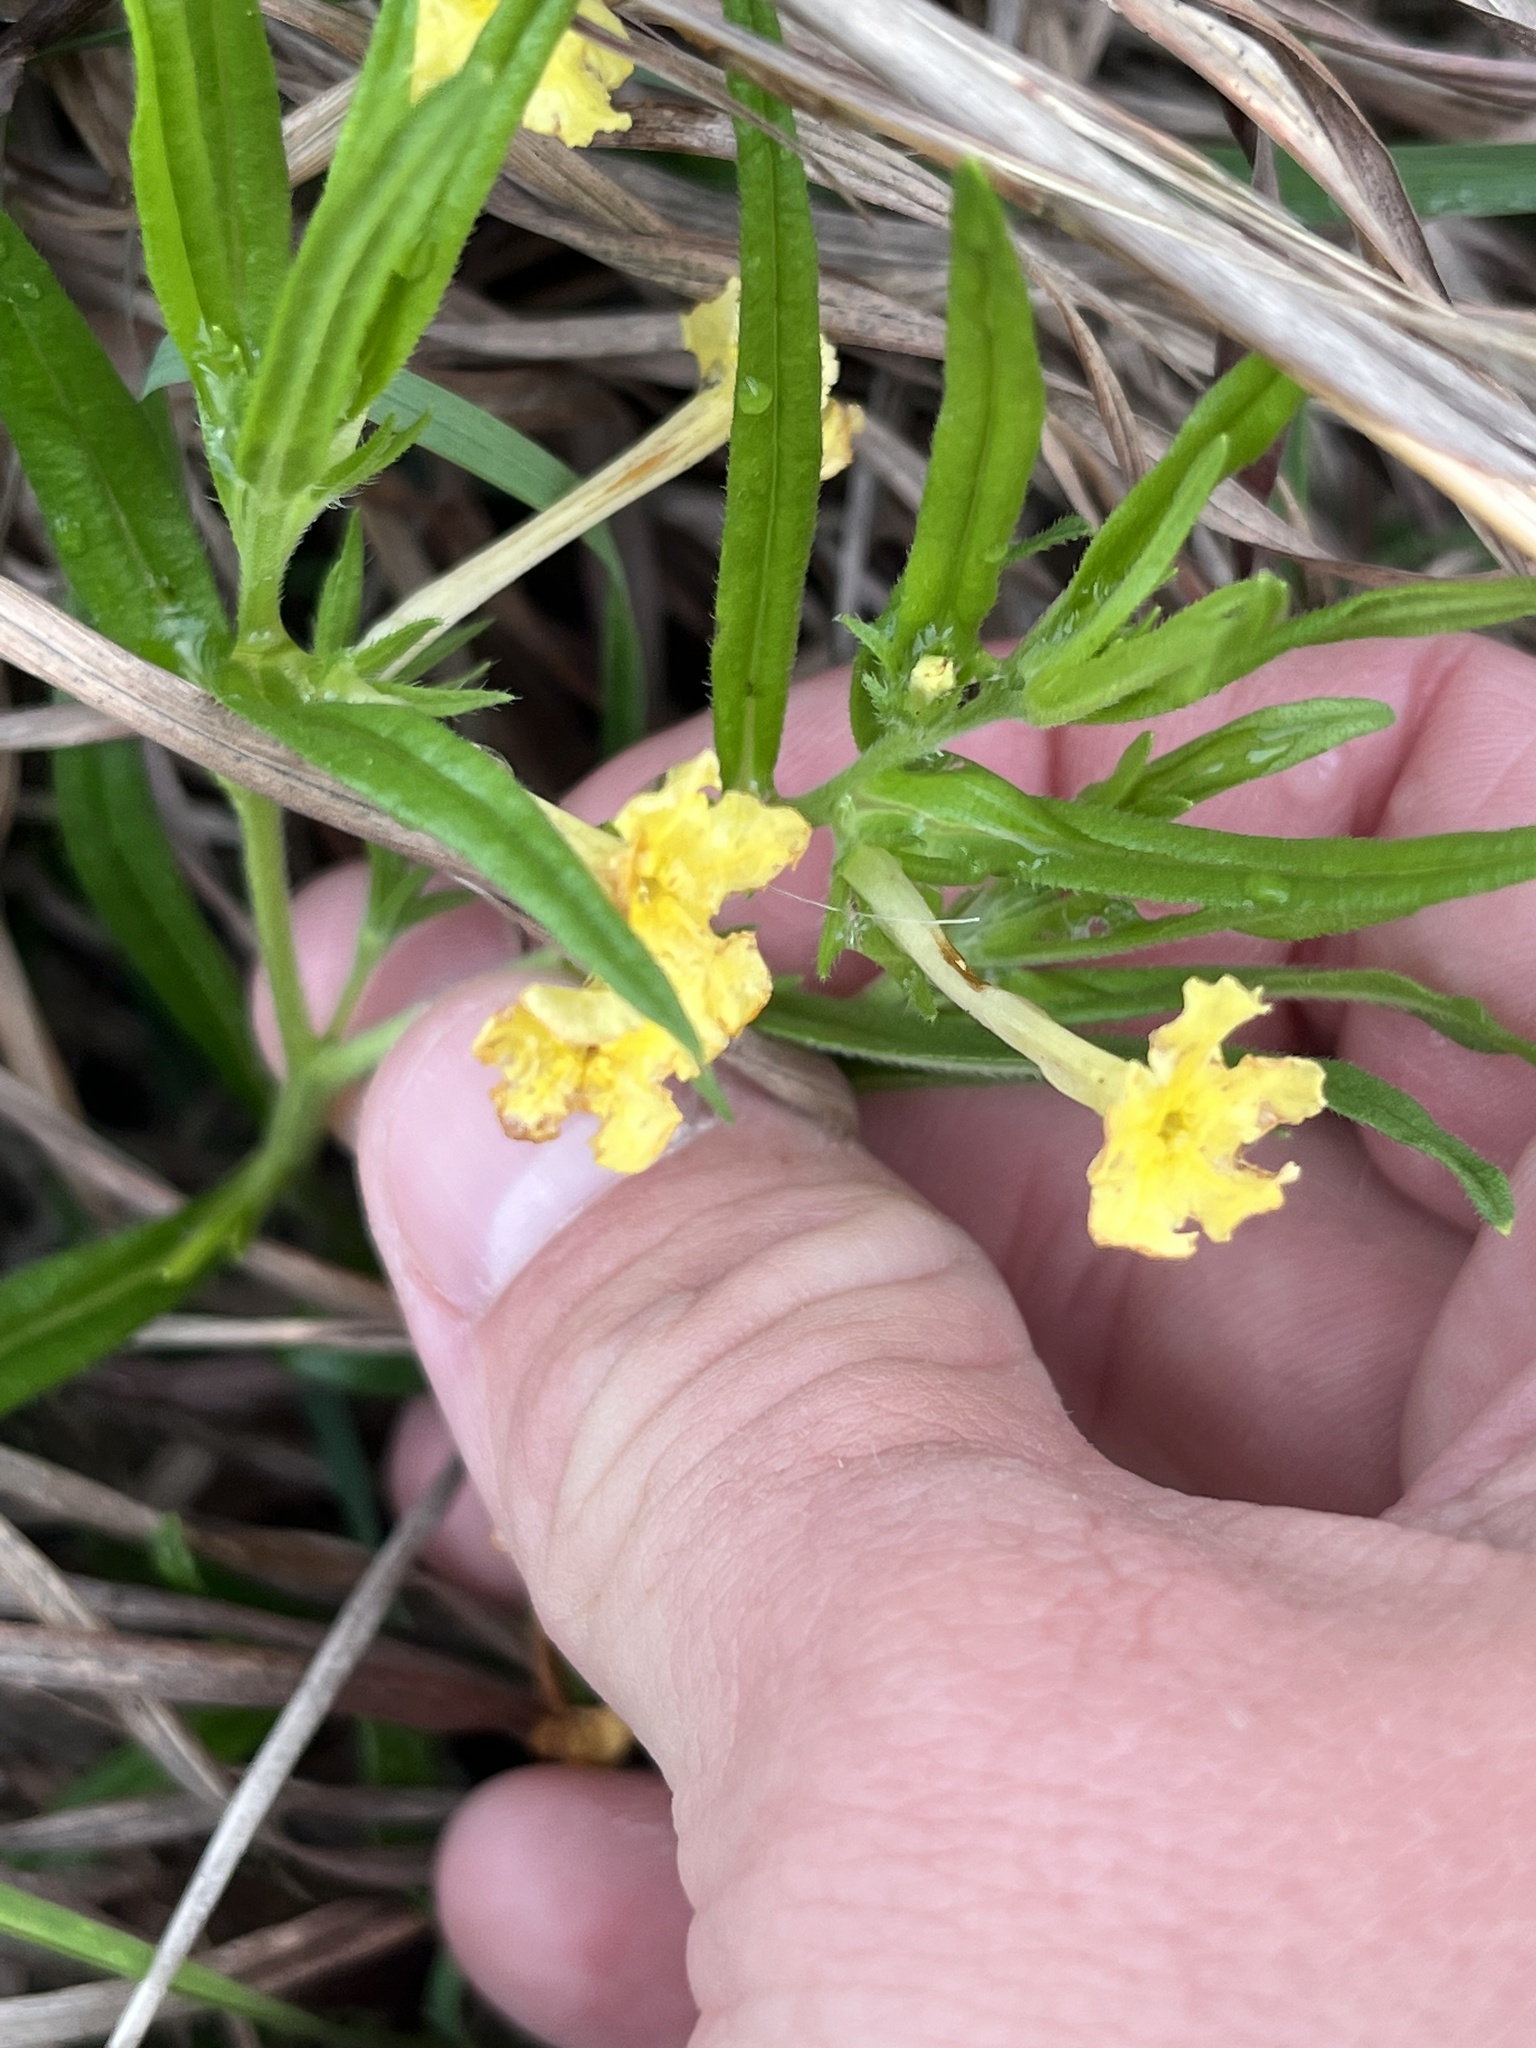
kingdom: Plantae
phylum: Tracheophyta
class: Magnoliopsida
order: Boraginales
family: Boraginaceae
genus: Lithospermum
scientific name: Lithospermum incisum
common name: Fringed gromwell
